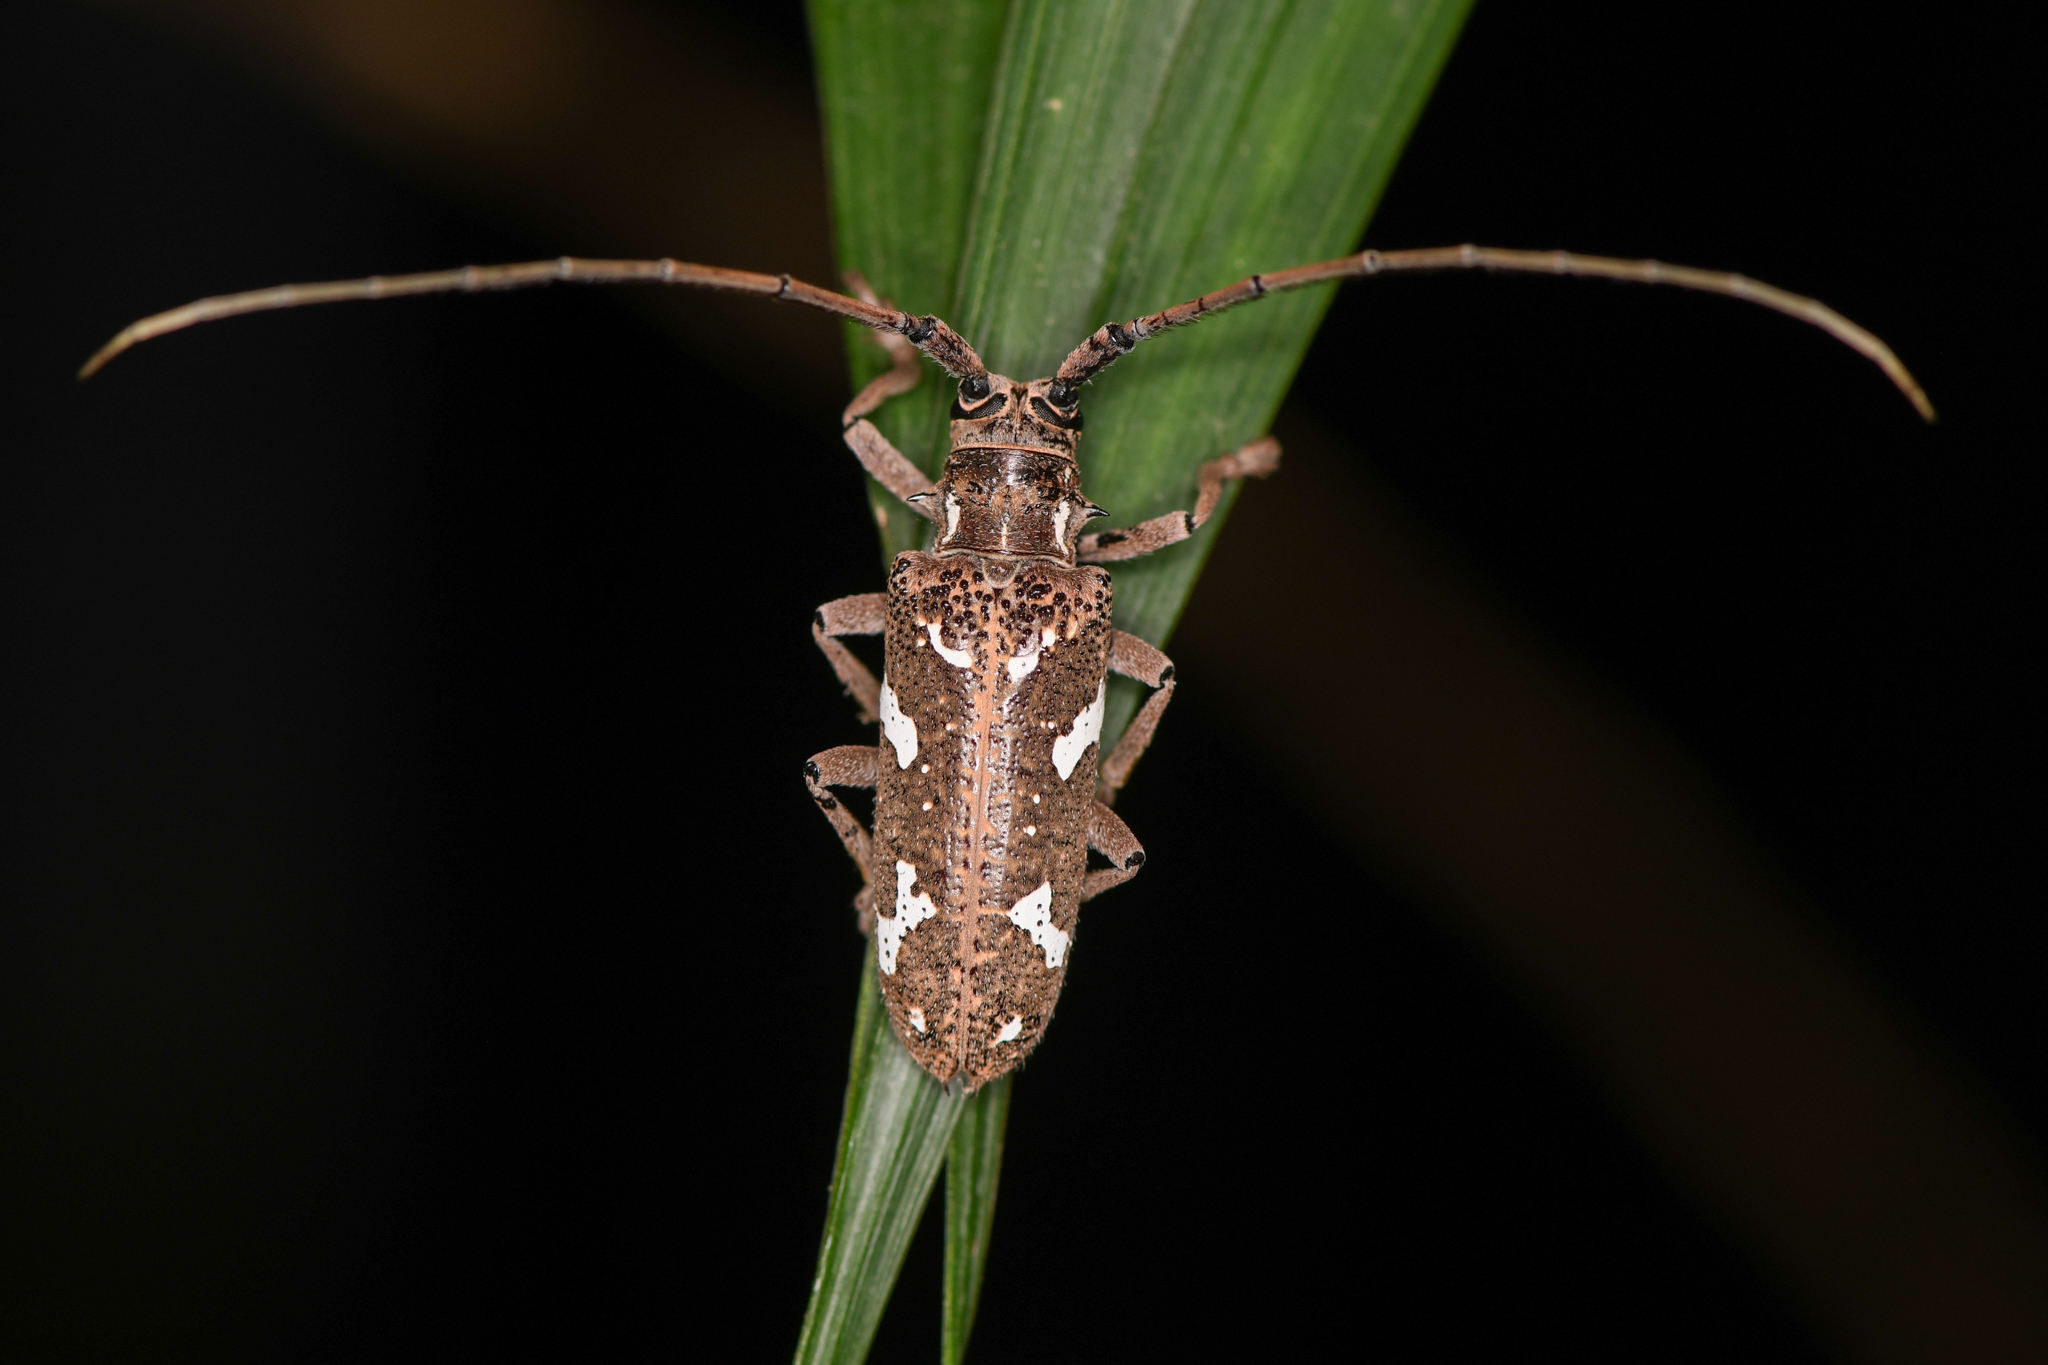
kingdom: Animalia
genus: Hammatoderus
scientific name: Hammatoderus thoracicus
